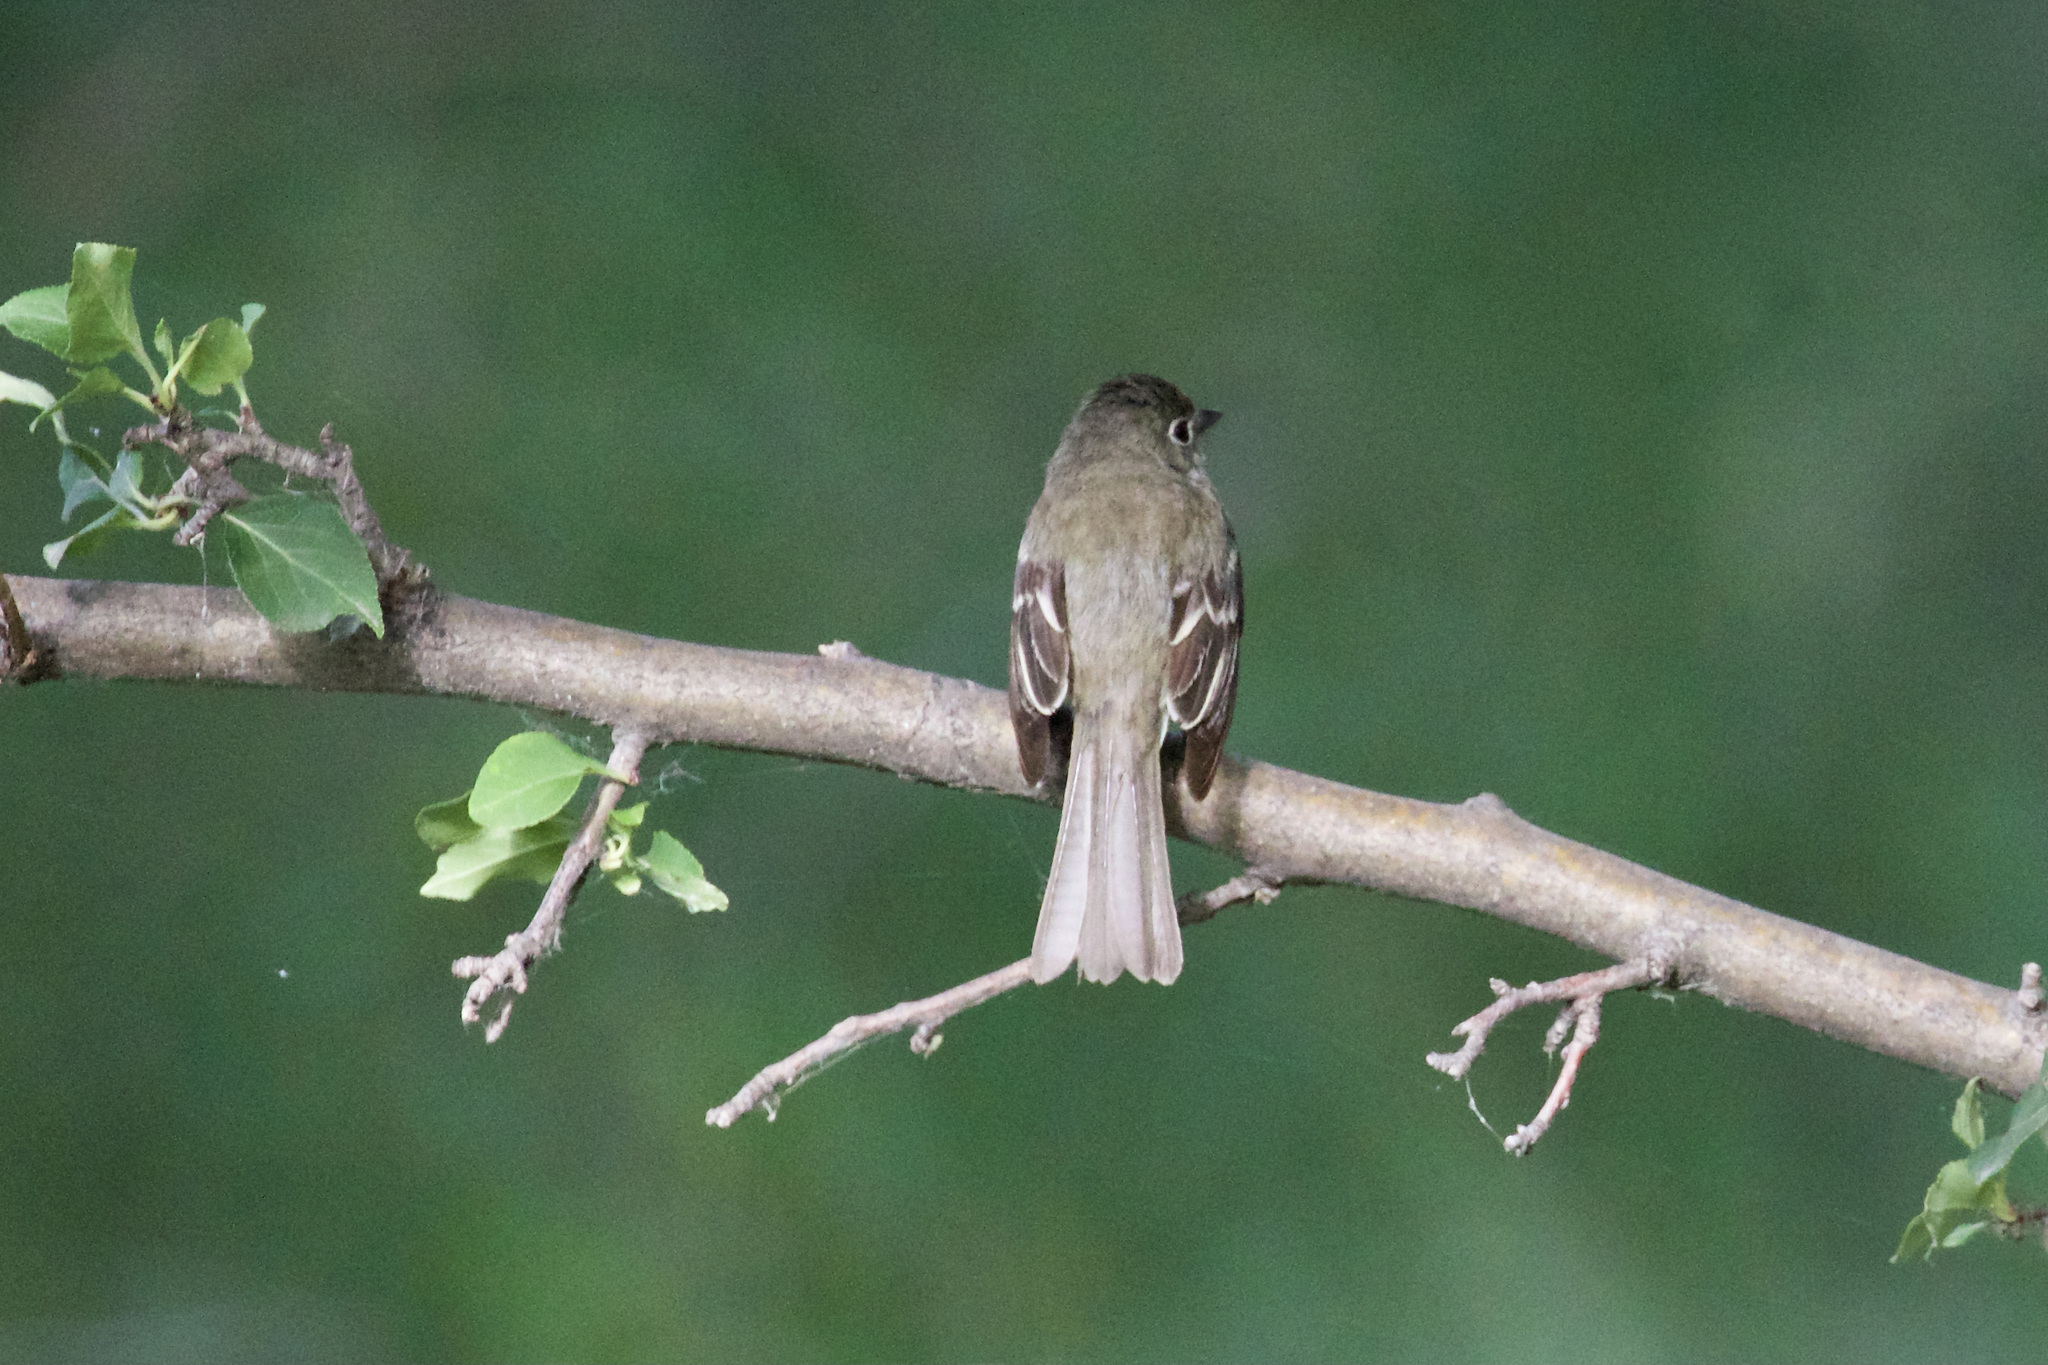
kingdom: Animalia
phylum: Chordata
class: Aves
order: Passeriformes
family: Tyrannidae
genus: Empidonax
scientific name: Empidonax minimus
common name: Least flycatcher
